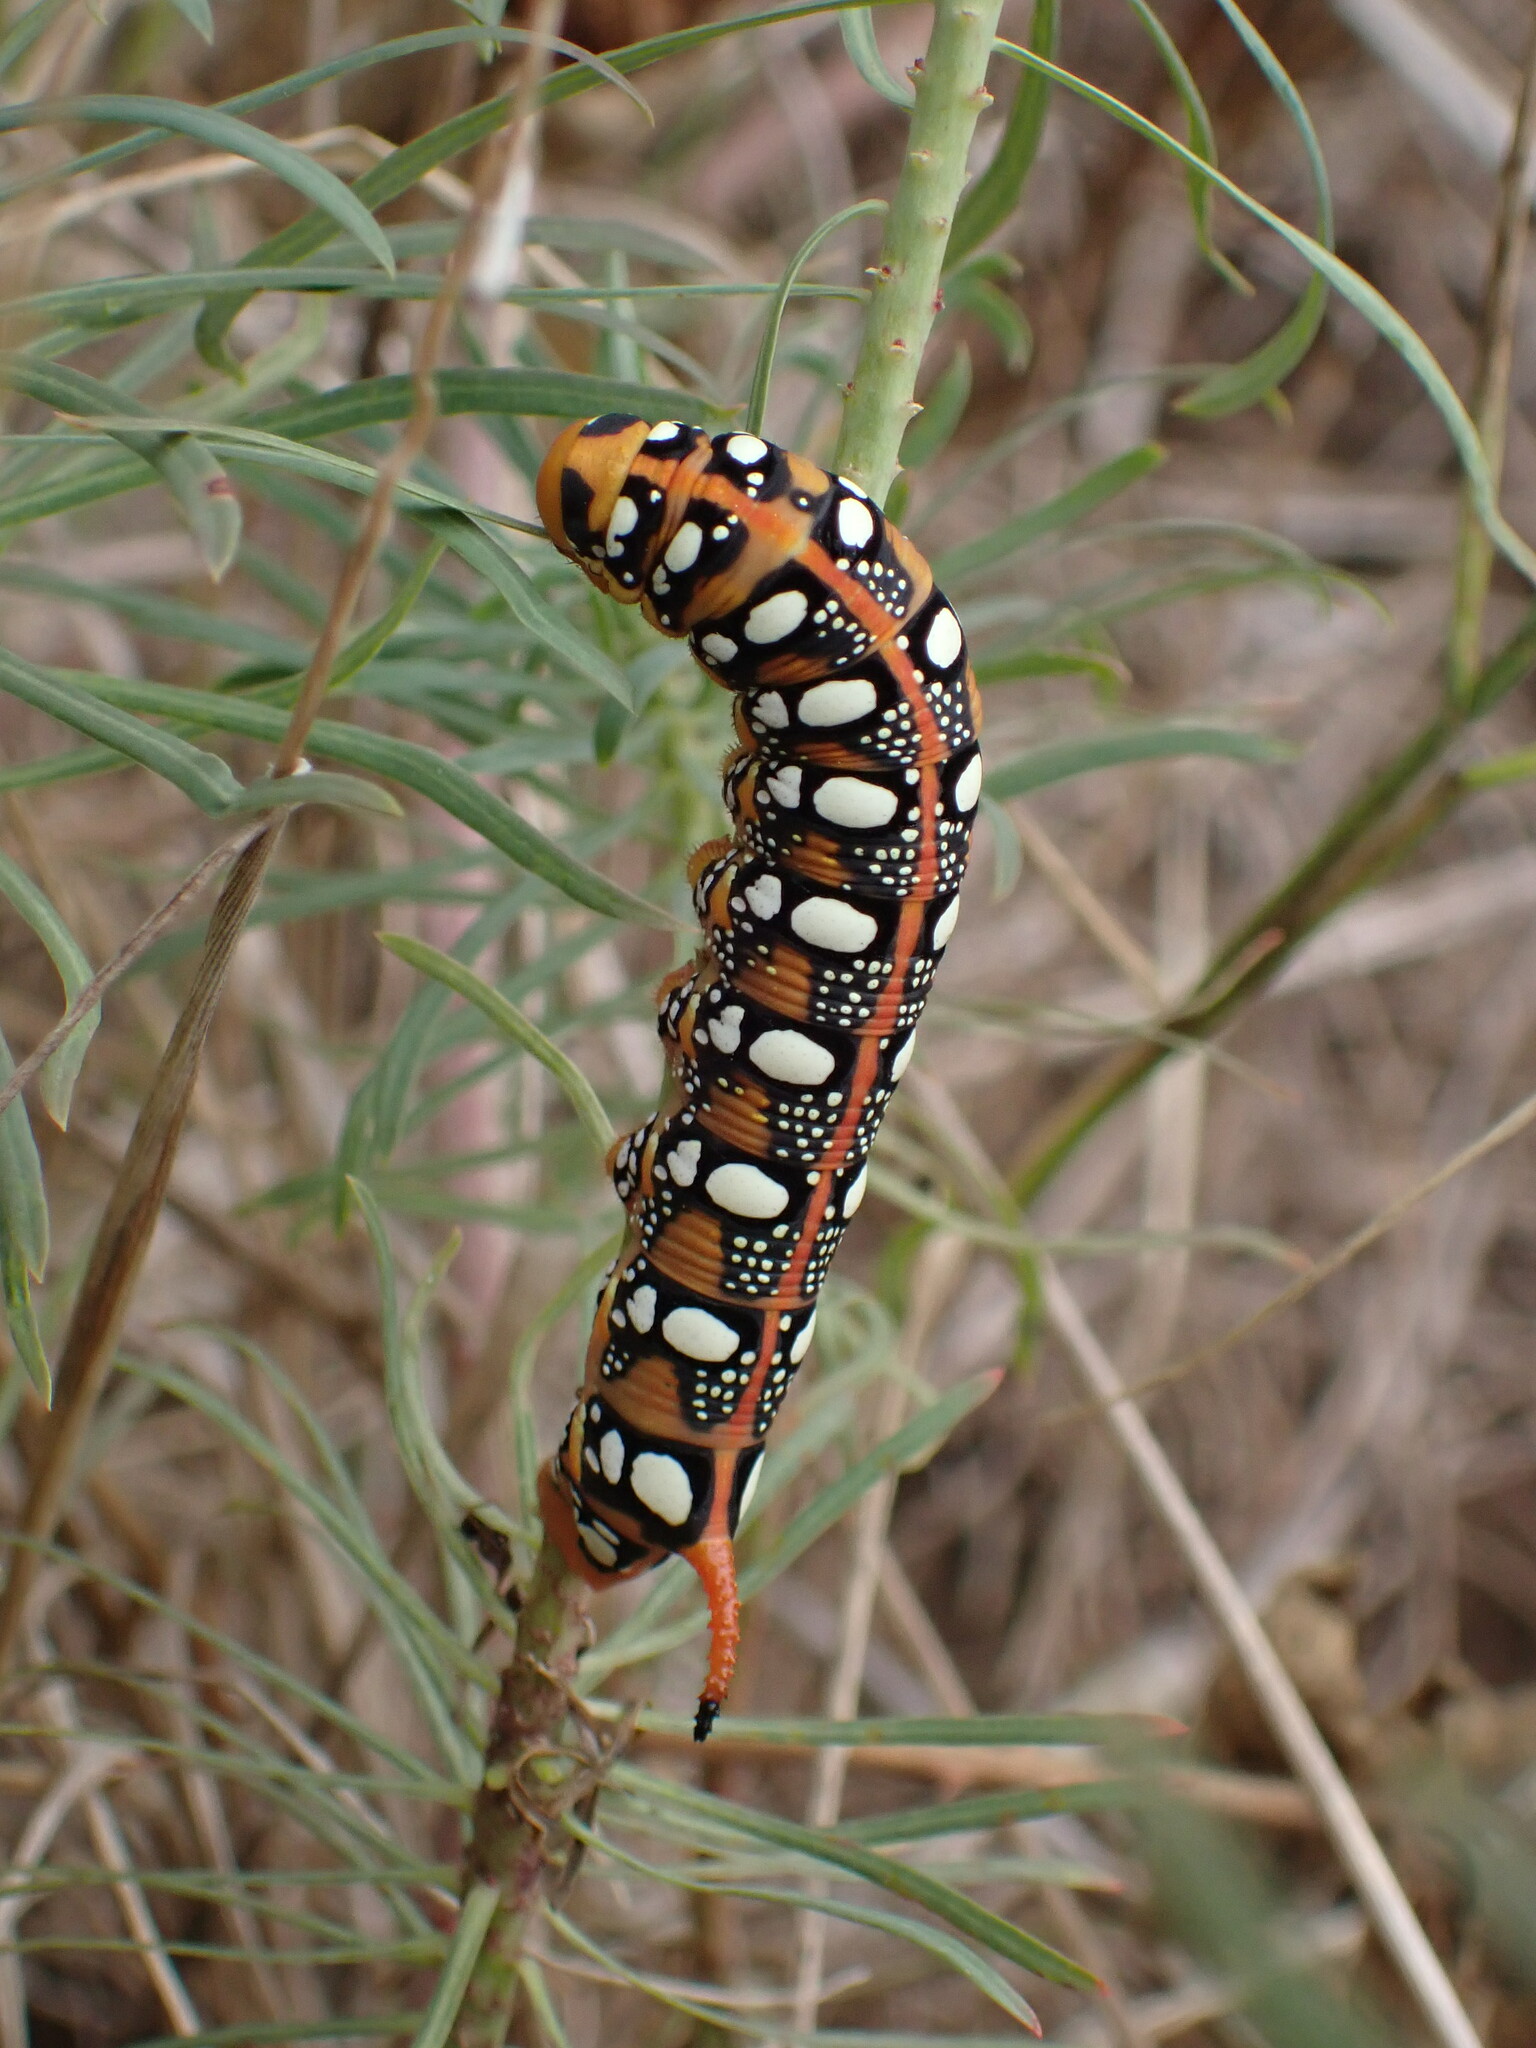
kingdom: Animalia
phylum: Arthropoda
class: Insecta
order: Lepidoptera
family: Sphingidae
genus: Hyles
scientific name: Hyles euphorbiae
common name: Spurge hawk-moth
